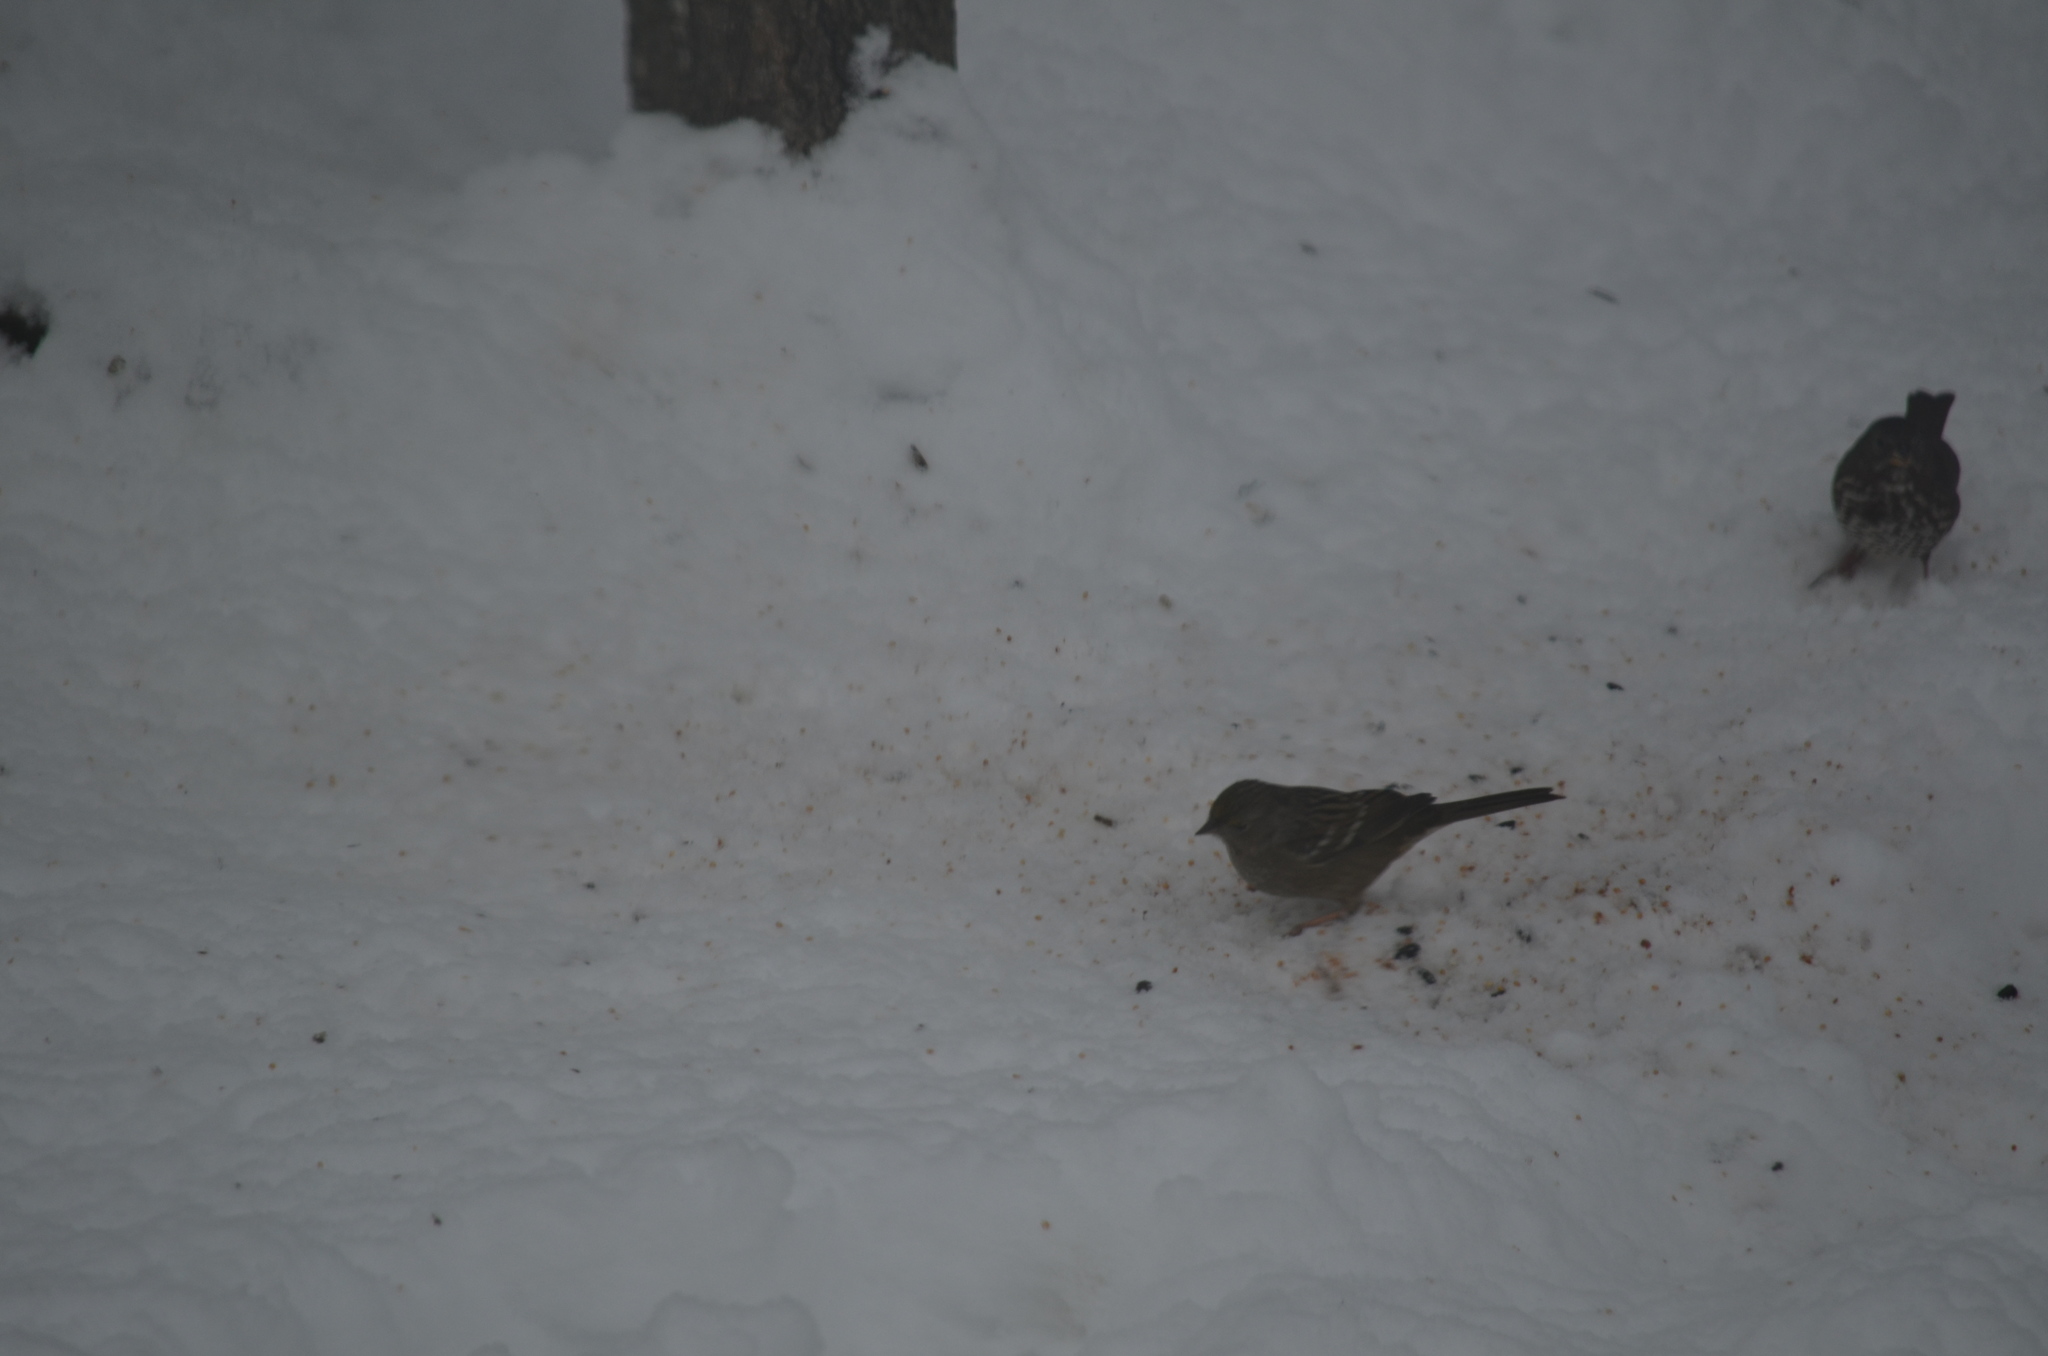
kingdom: Animalia
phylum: Chordata
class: Aves
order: Passeriformes
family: Passerellidae
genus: Zonotrichia
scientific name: Zonotrichia atricapilla
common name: Golden-crowned sparrow
